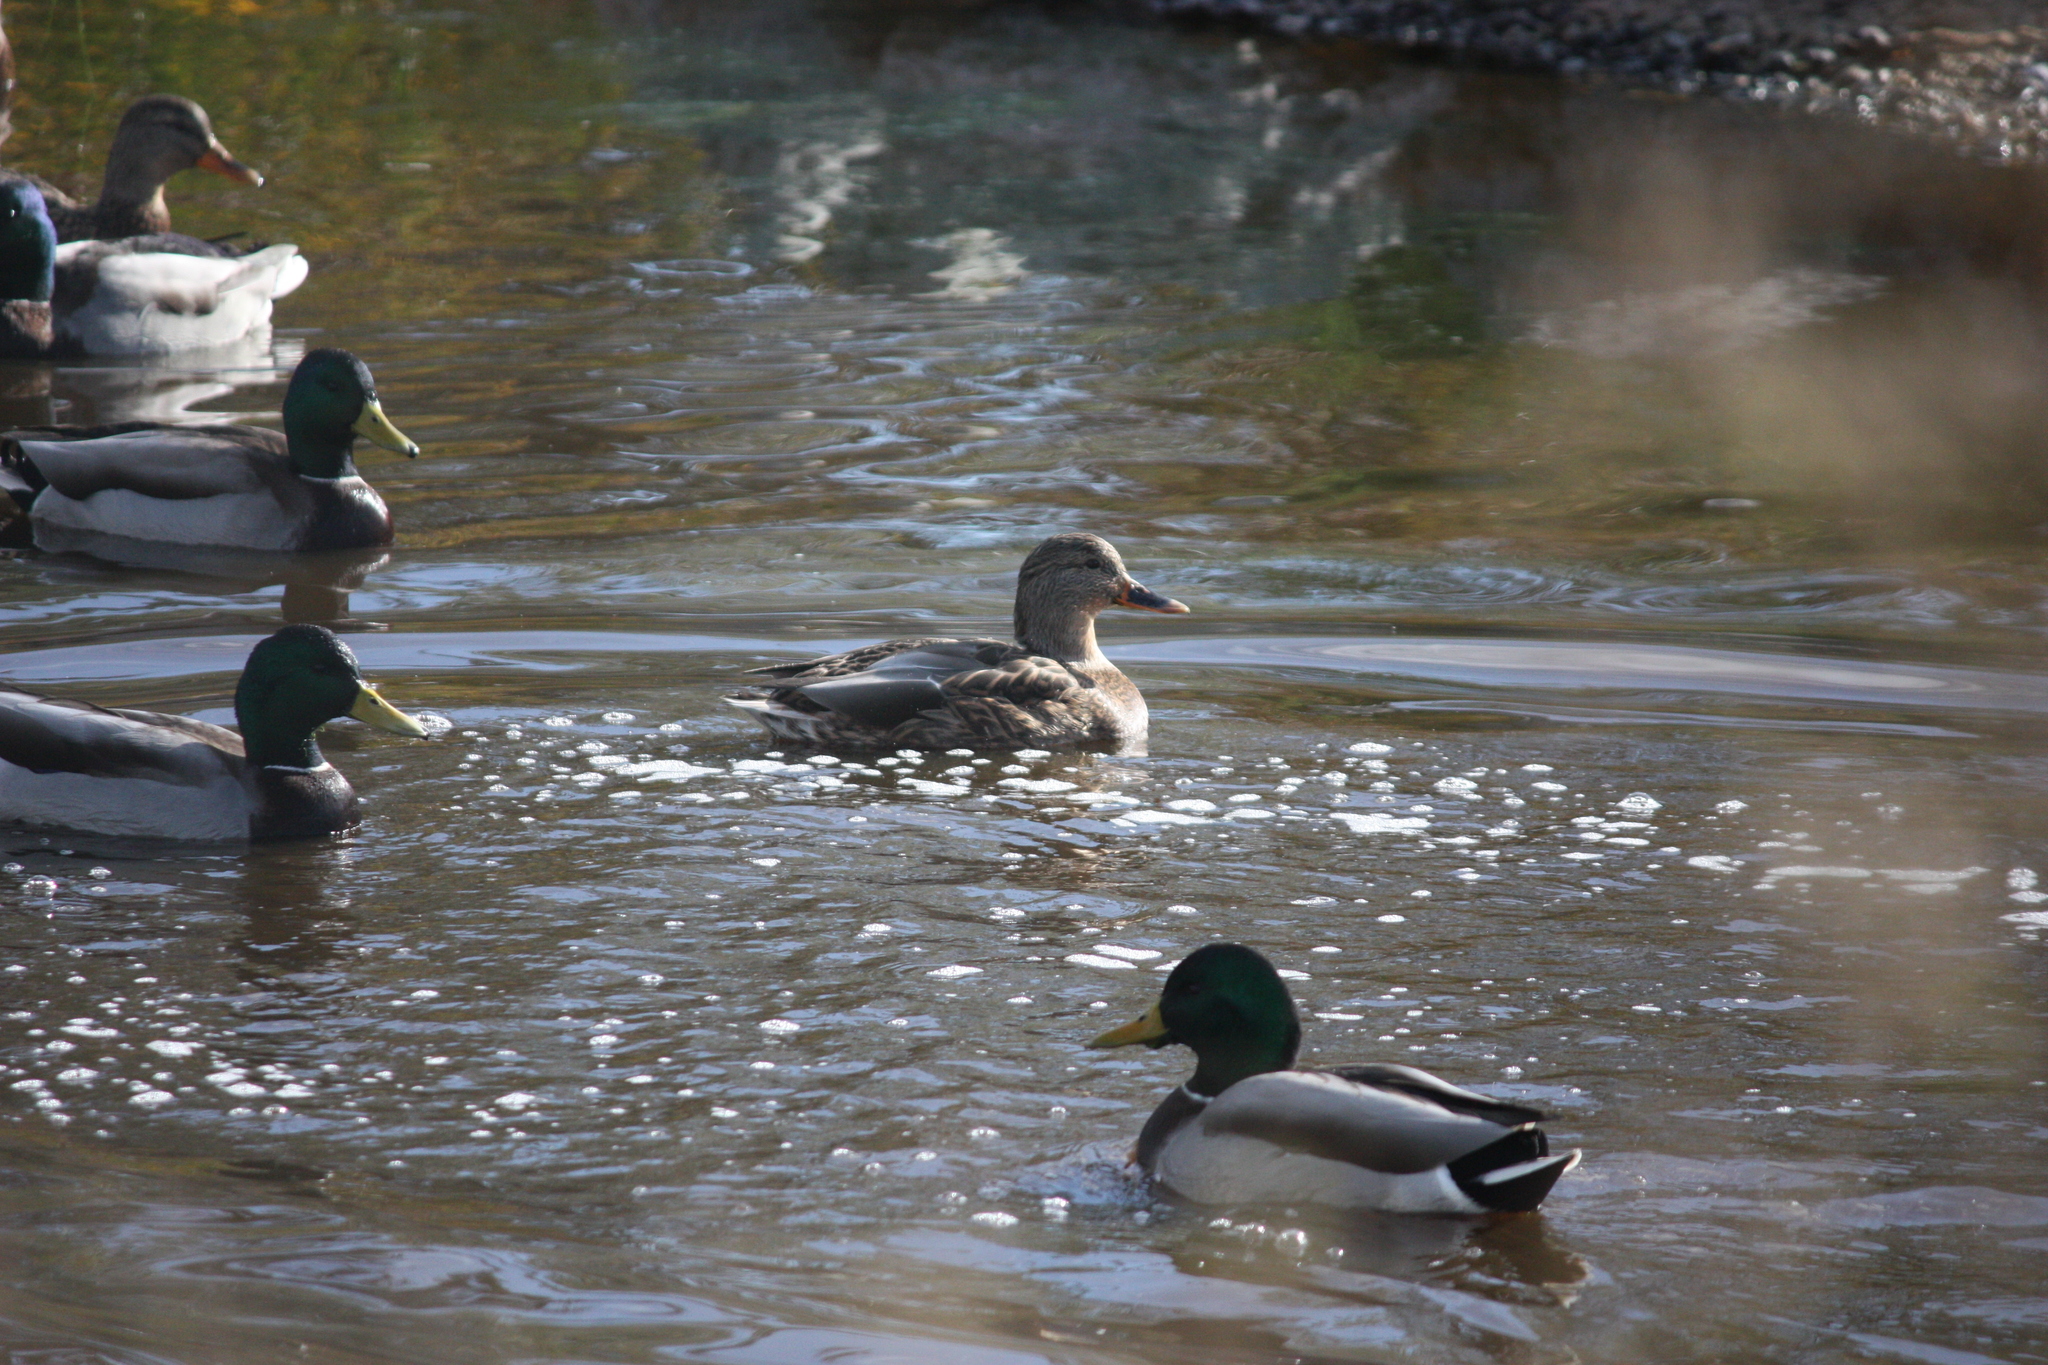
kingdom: Animalia
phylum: Chordata
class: Aves
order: Anseriformes
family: Anatidae
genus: Anas
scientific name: Anas platyrhynchos
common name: Mallard
